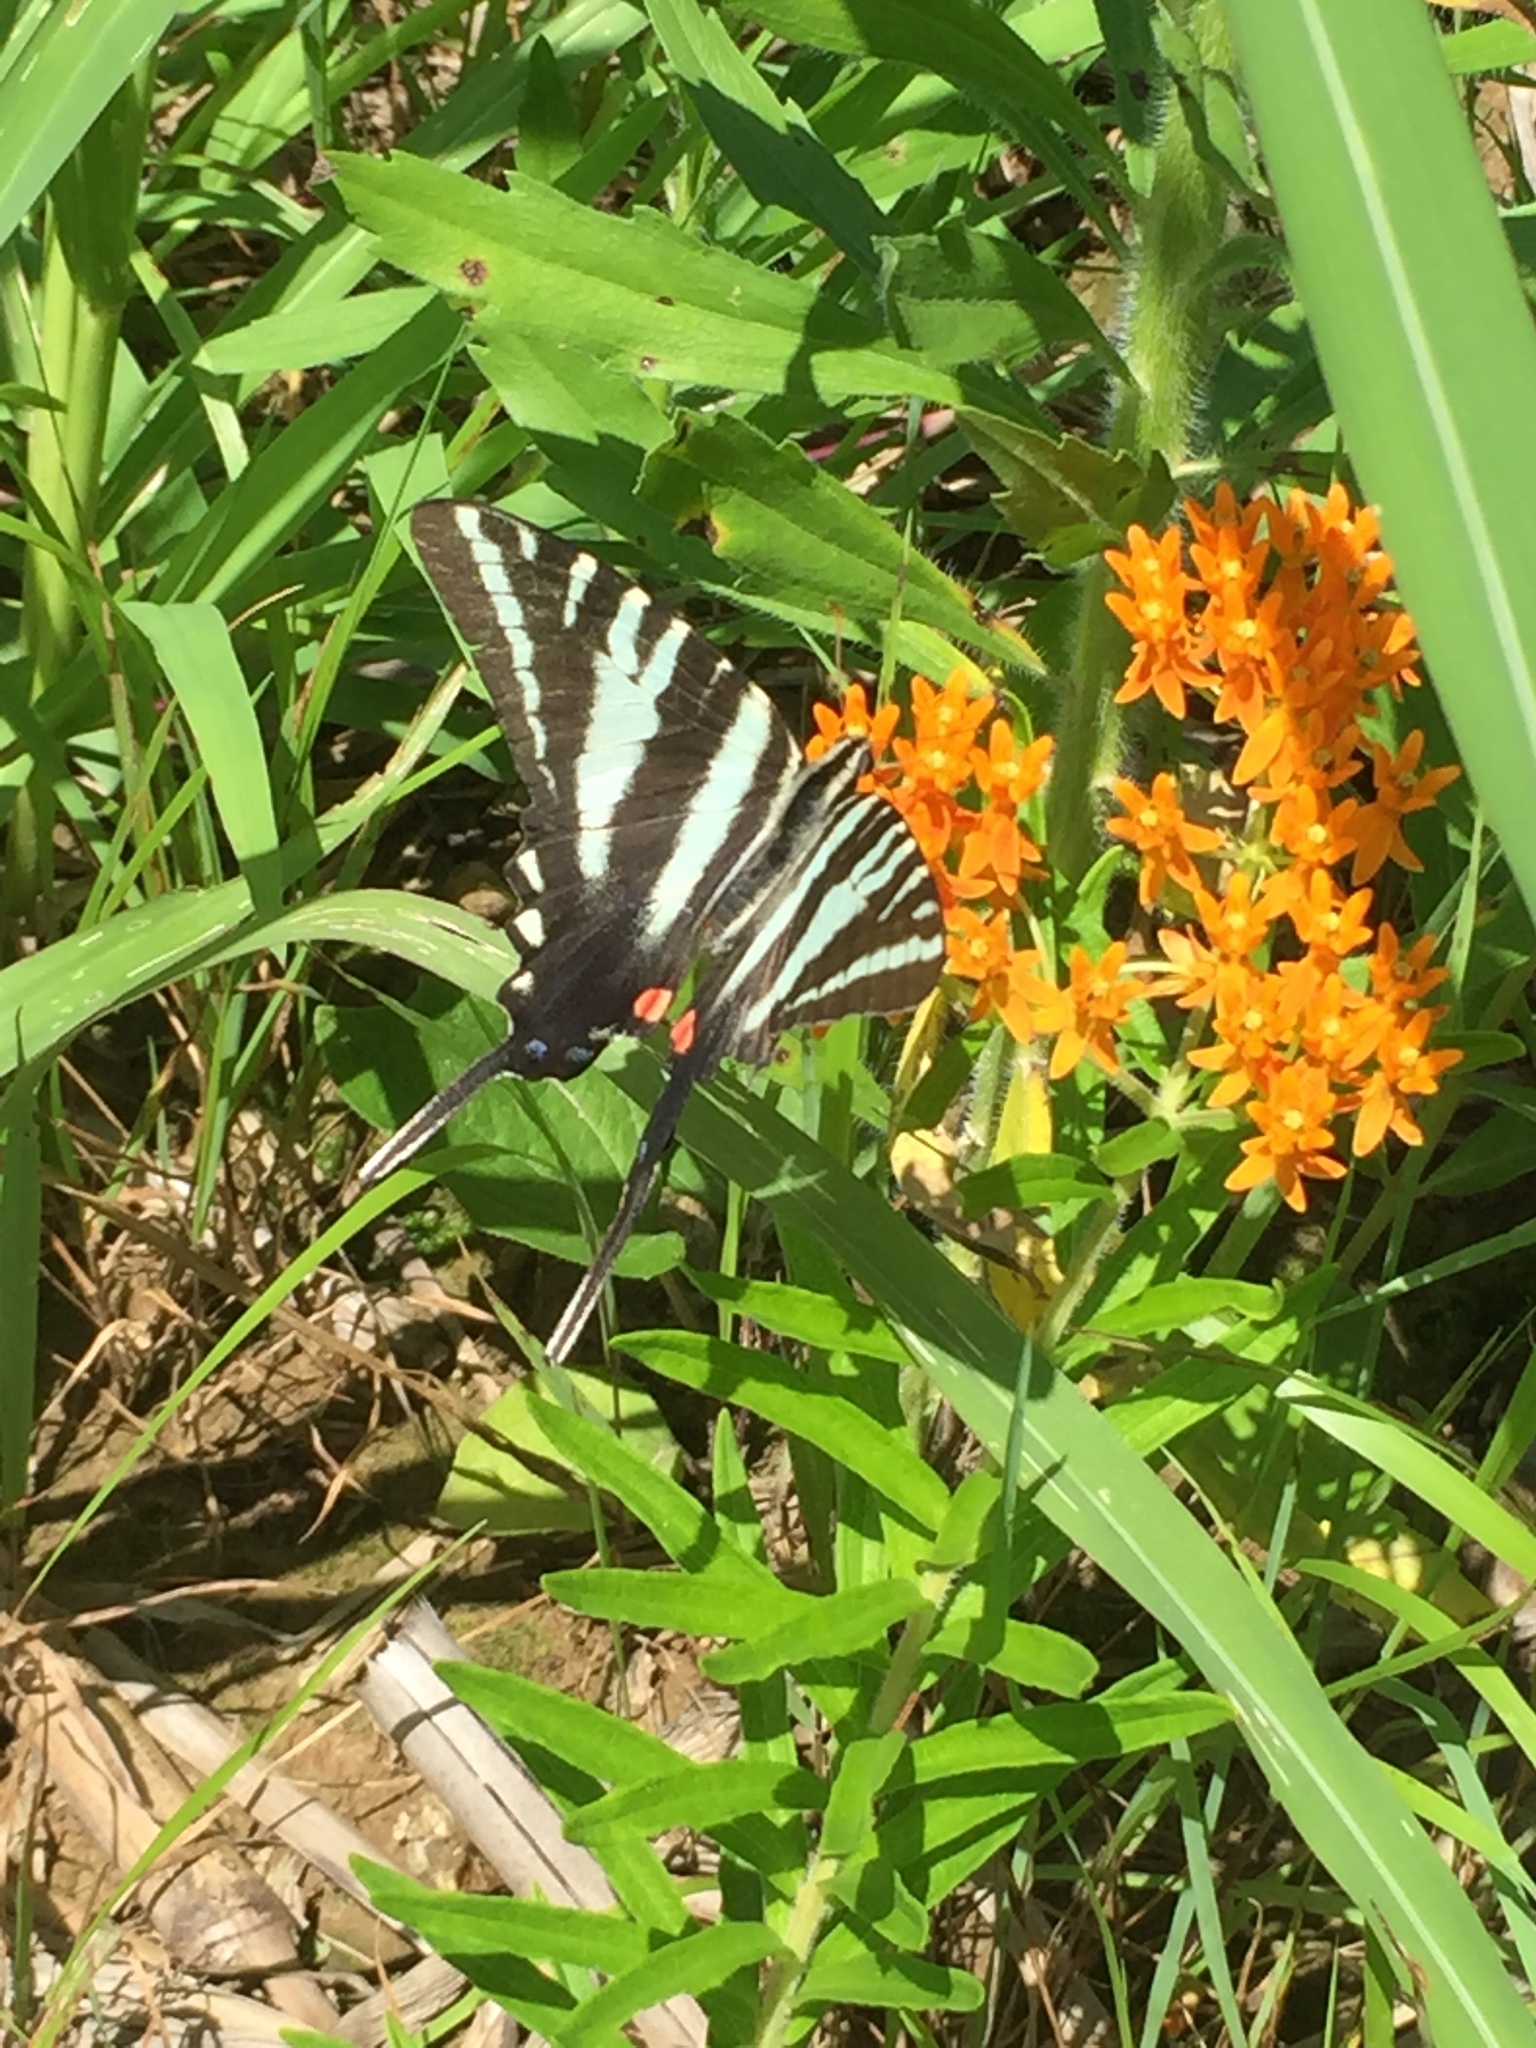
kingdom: Animalia
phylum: Arthropoda
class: Insecta
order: Lepidoptera
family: Papilionidae
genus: Protographium
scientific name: Protographium marcellus
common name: Zebra swallowtail
